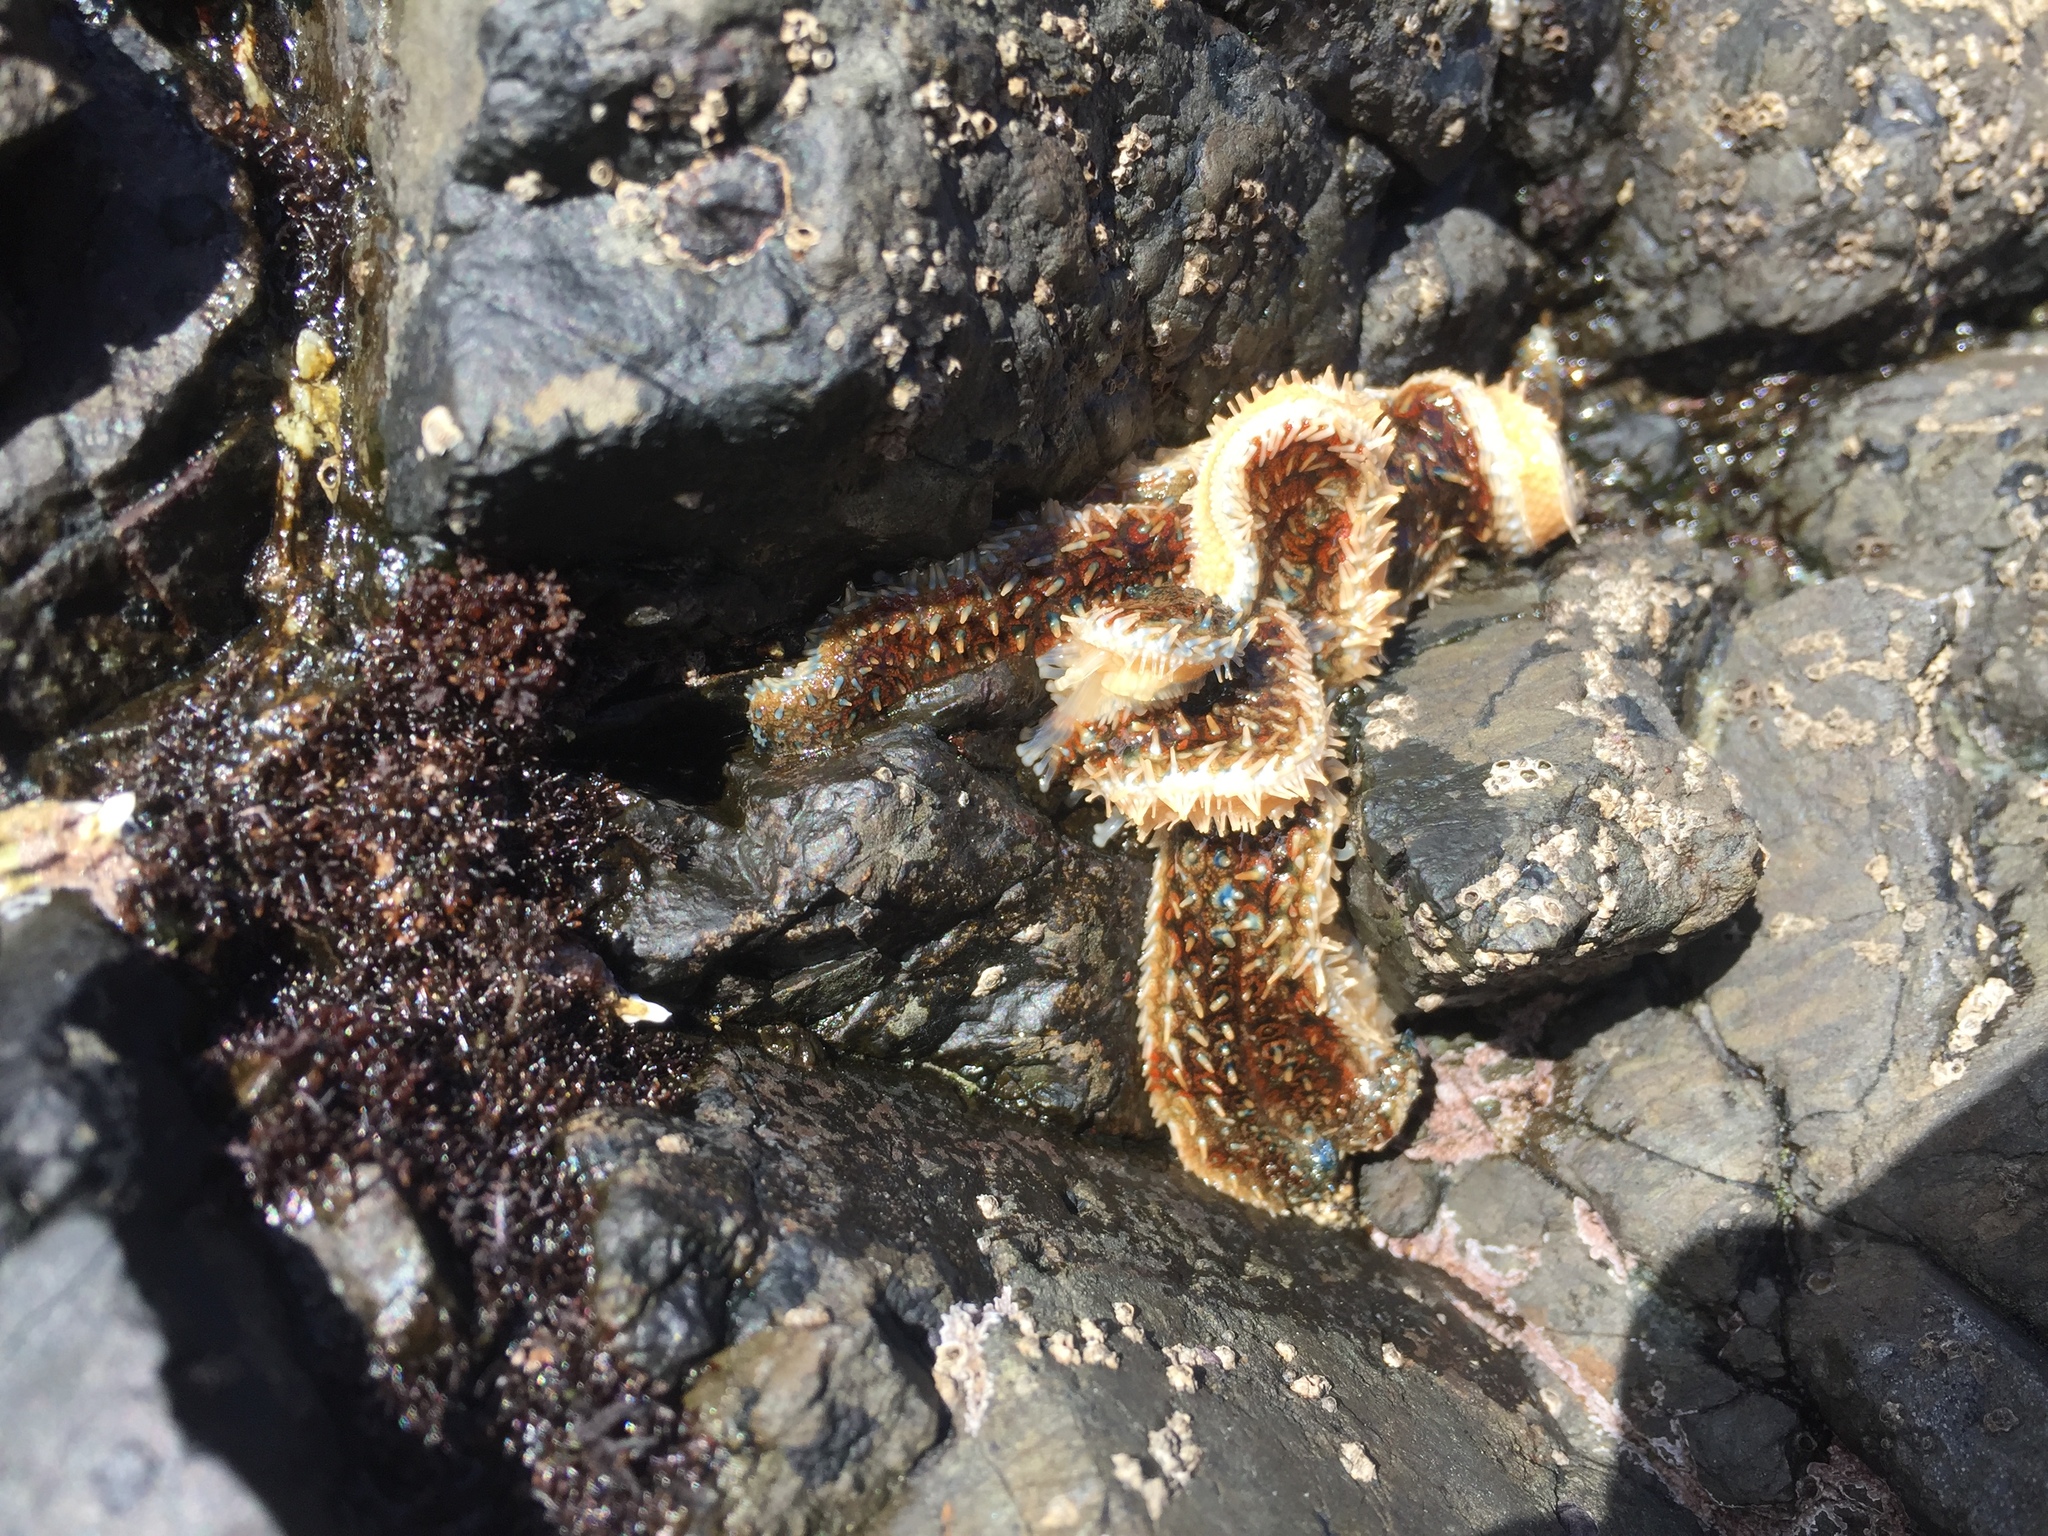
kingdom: Animalia
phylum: Echinodermata
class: Asteroidea
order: Forcipulatida
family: Asteriidae
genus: Coscinasterias
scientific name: Coscinasterias muricata
